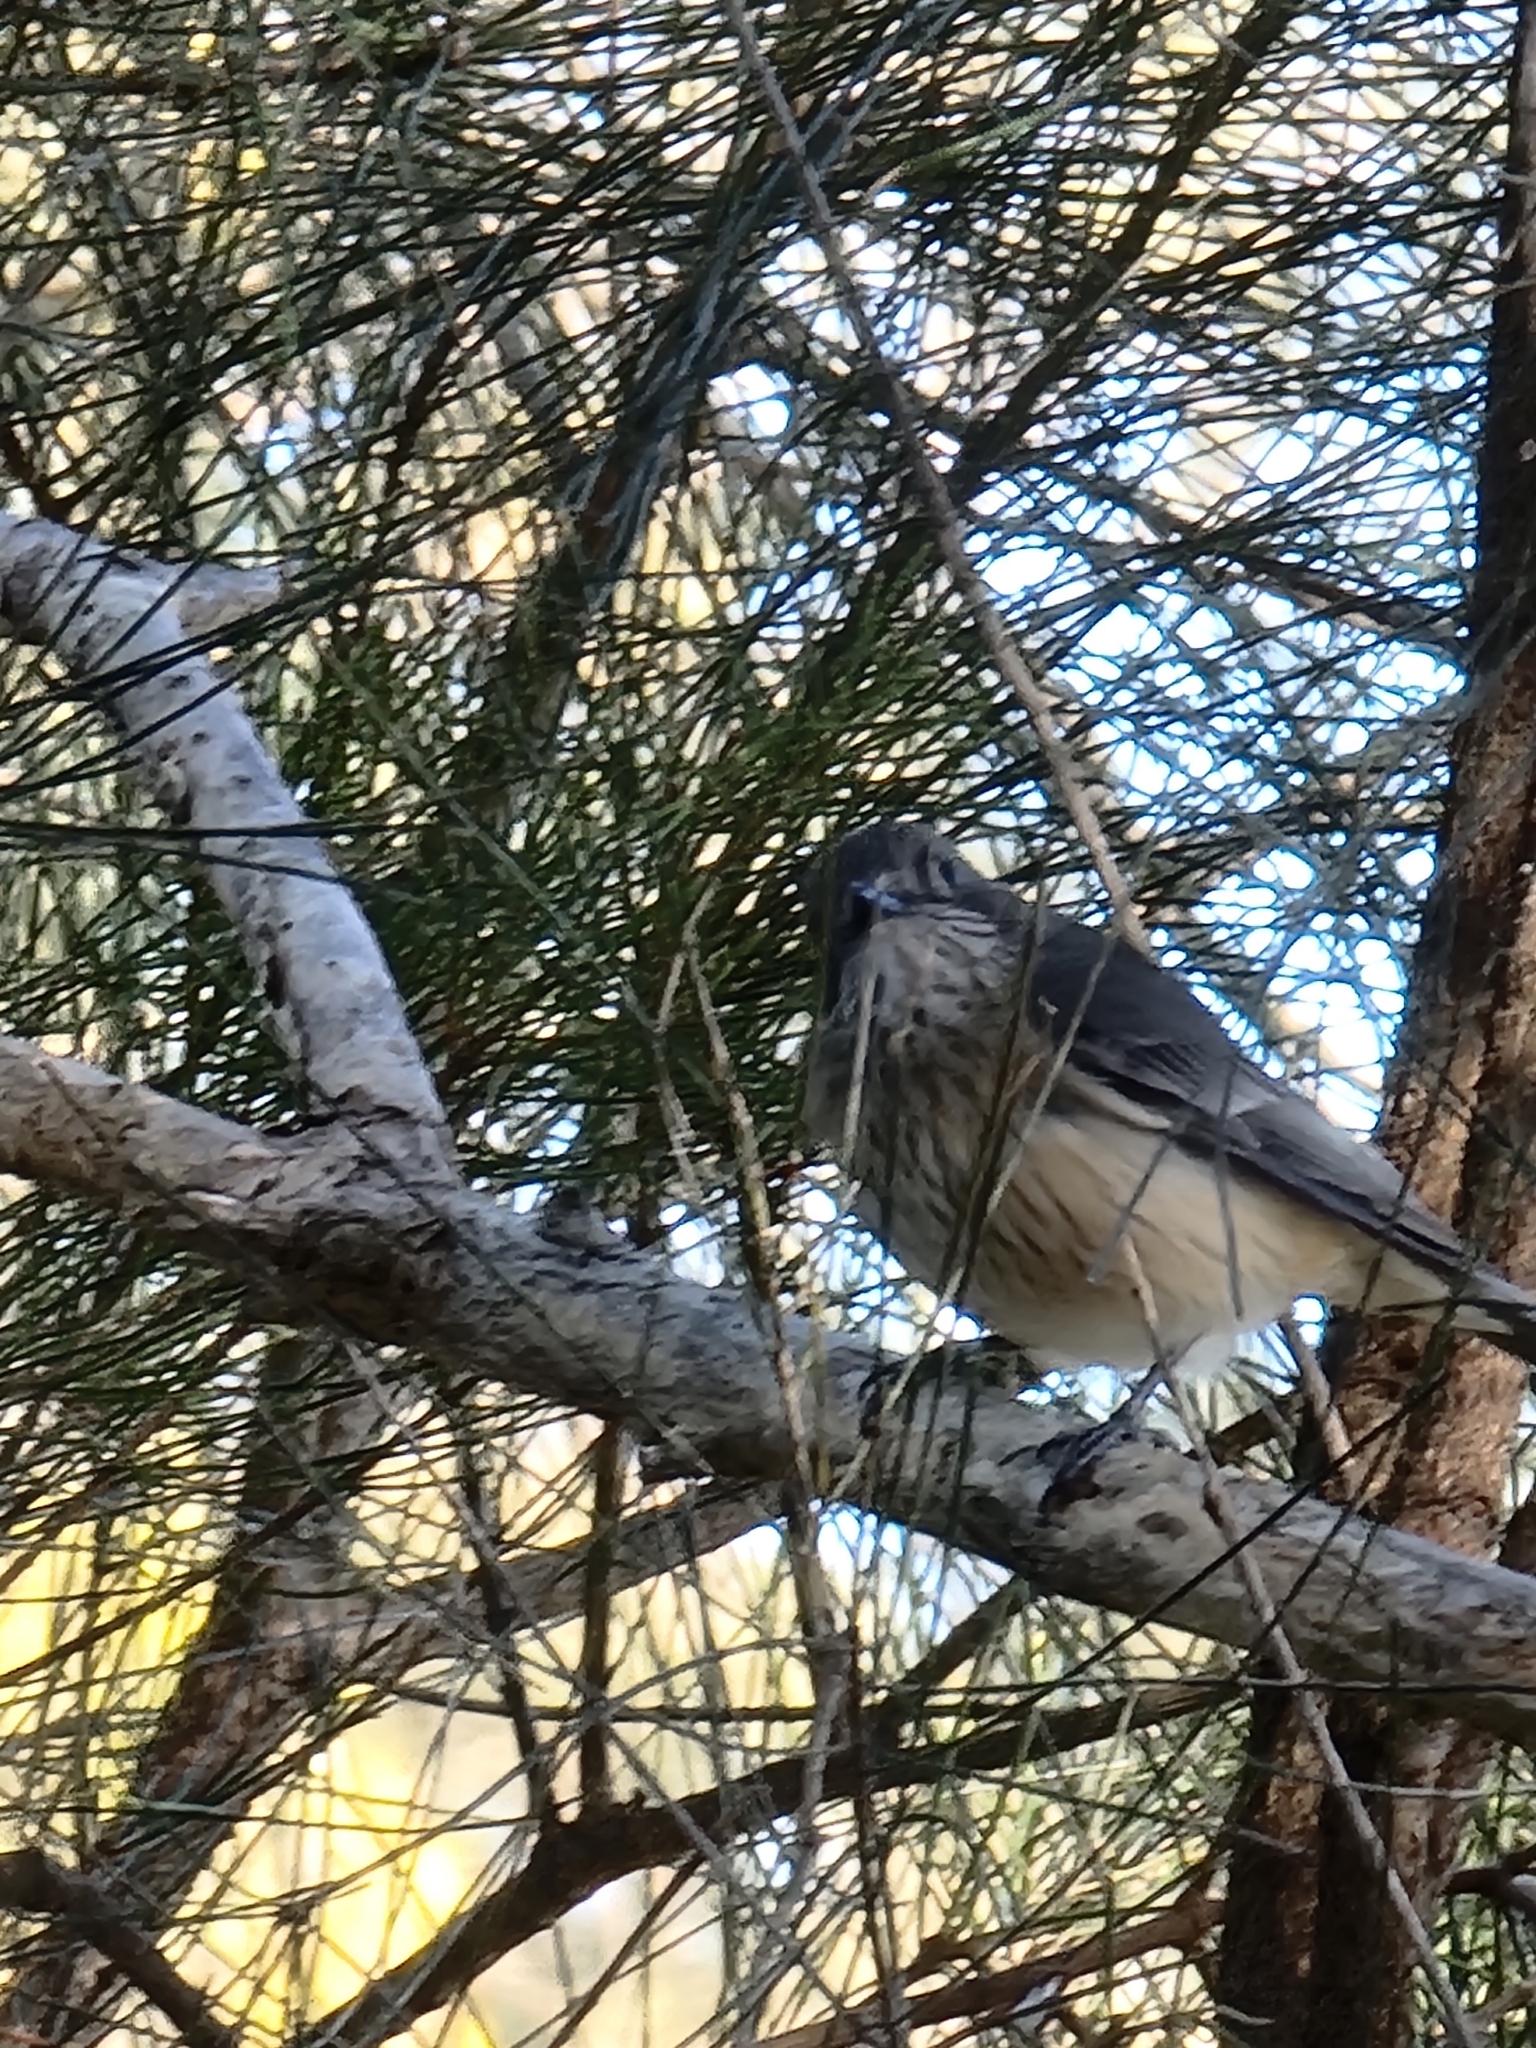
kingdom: Animalia
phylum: Chordata
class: Aves
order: Passeriformes
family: Pachycephalidae
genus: Pachycephala
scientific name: Pachycephala rufiventris
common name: Rufous whistler
